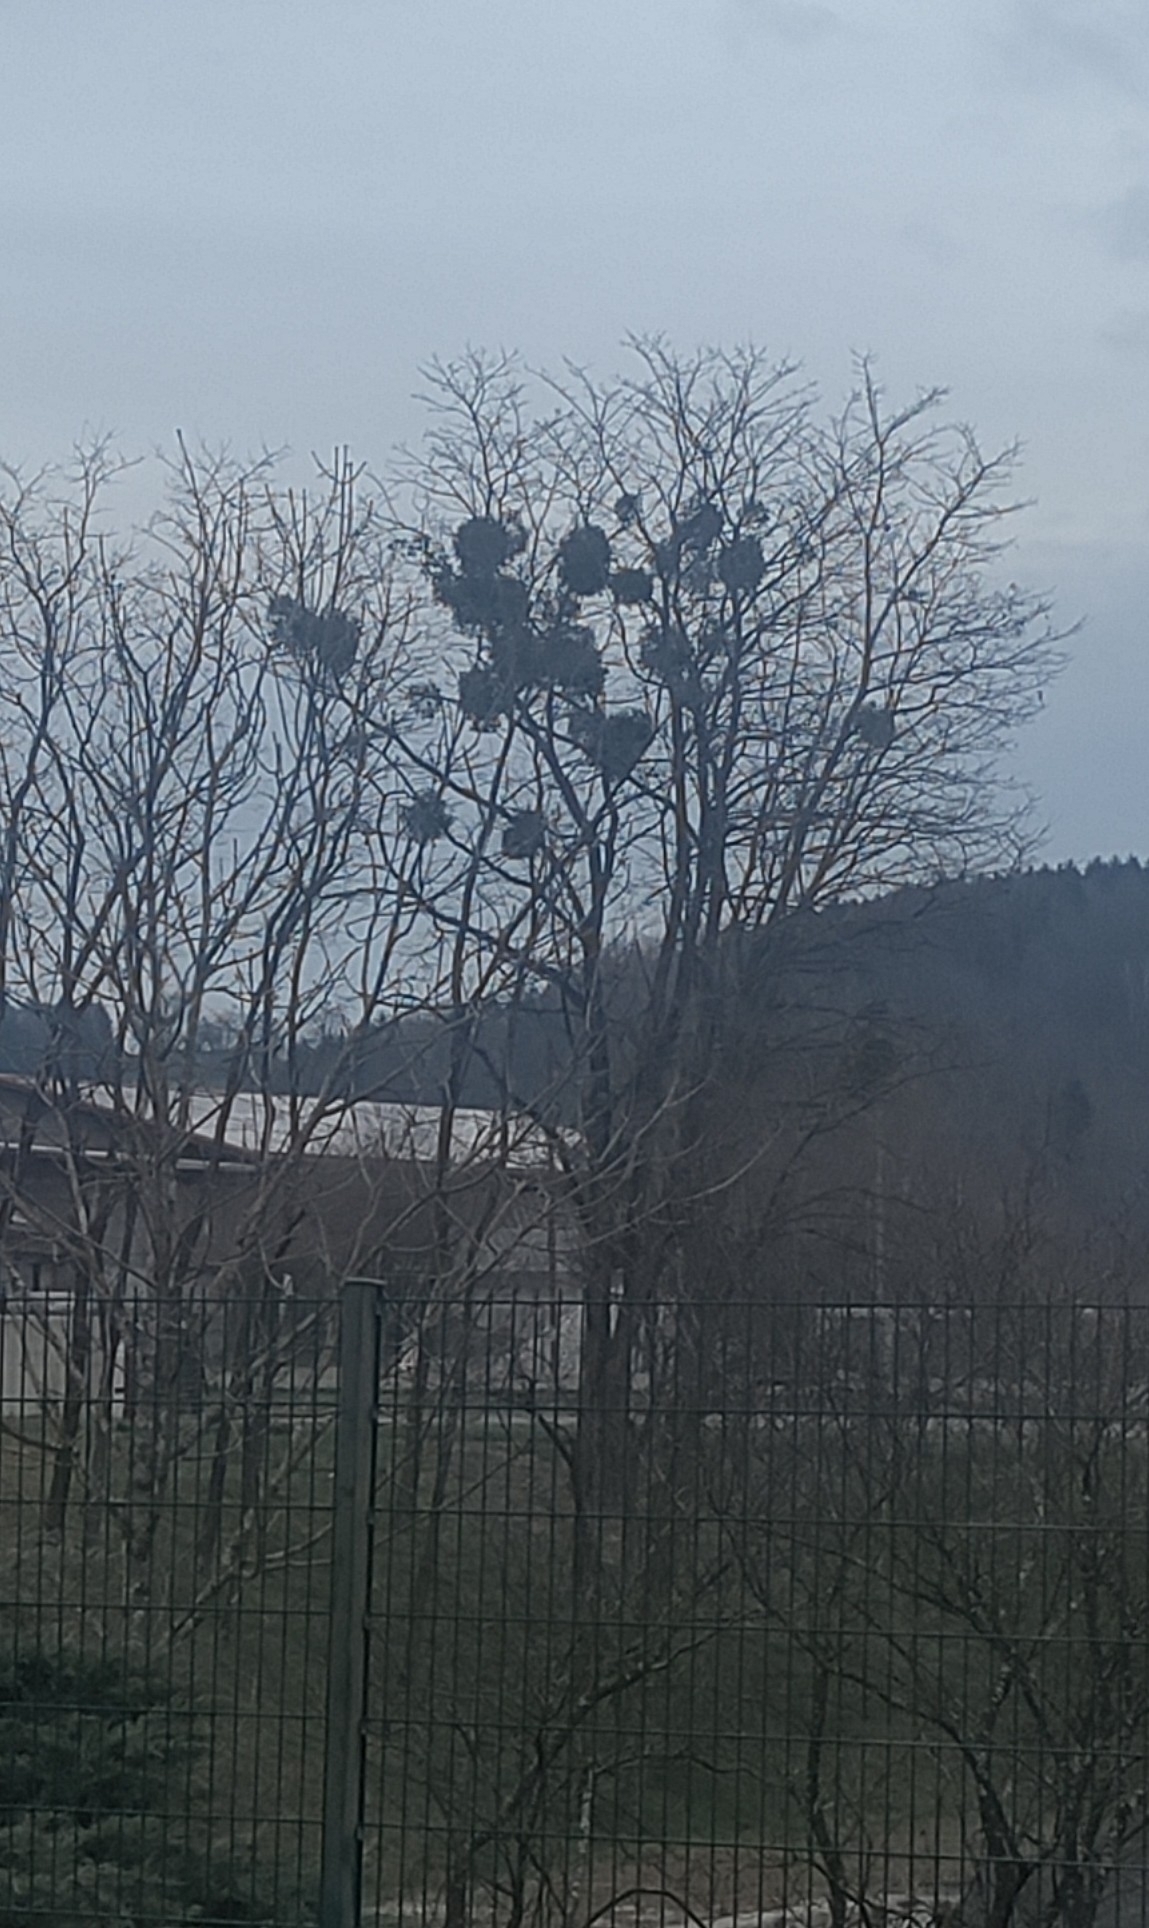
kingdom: Plantae
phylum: Tracheophyta
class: Magnoliopsida
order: Santalales
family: Viscaceae
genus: Viscum
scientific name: Viscum album
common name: Mistletoe
